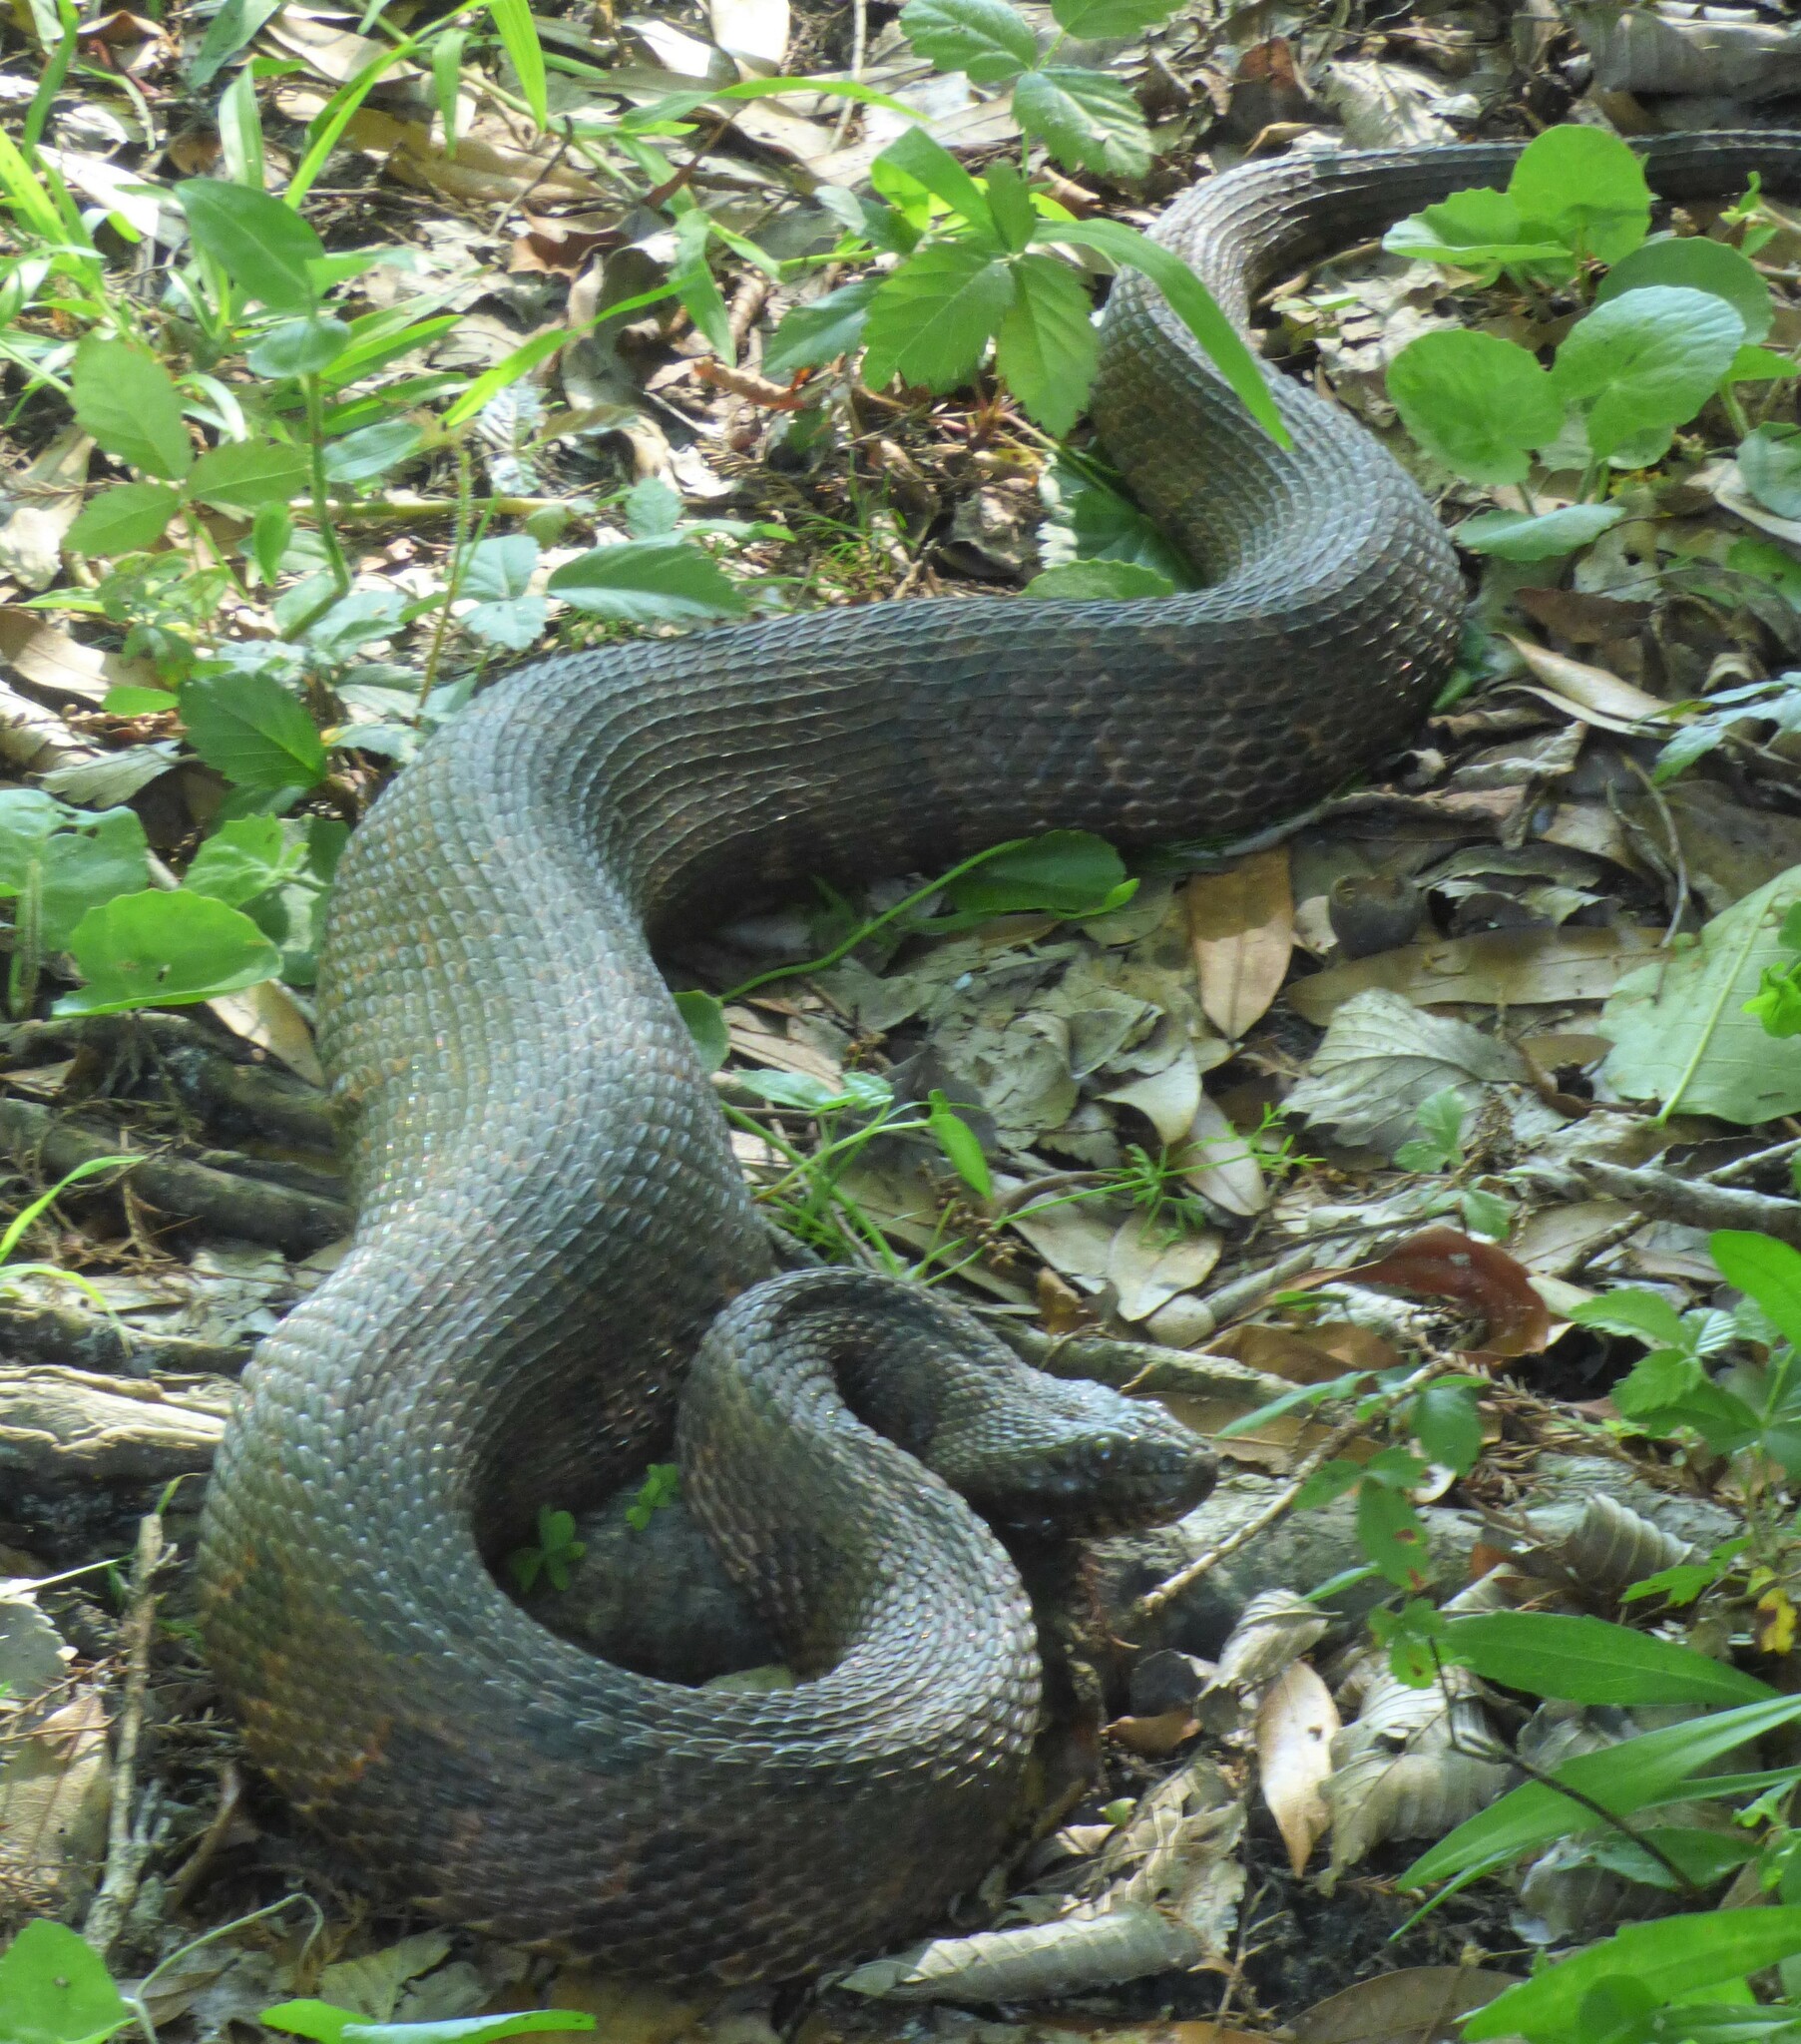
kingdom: Animalia
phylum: Chordata
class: Squamata
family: Colubridae
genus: Nerodia
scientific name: Nerodia taxispilota
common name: Brown water snake
